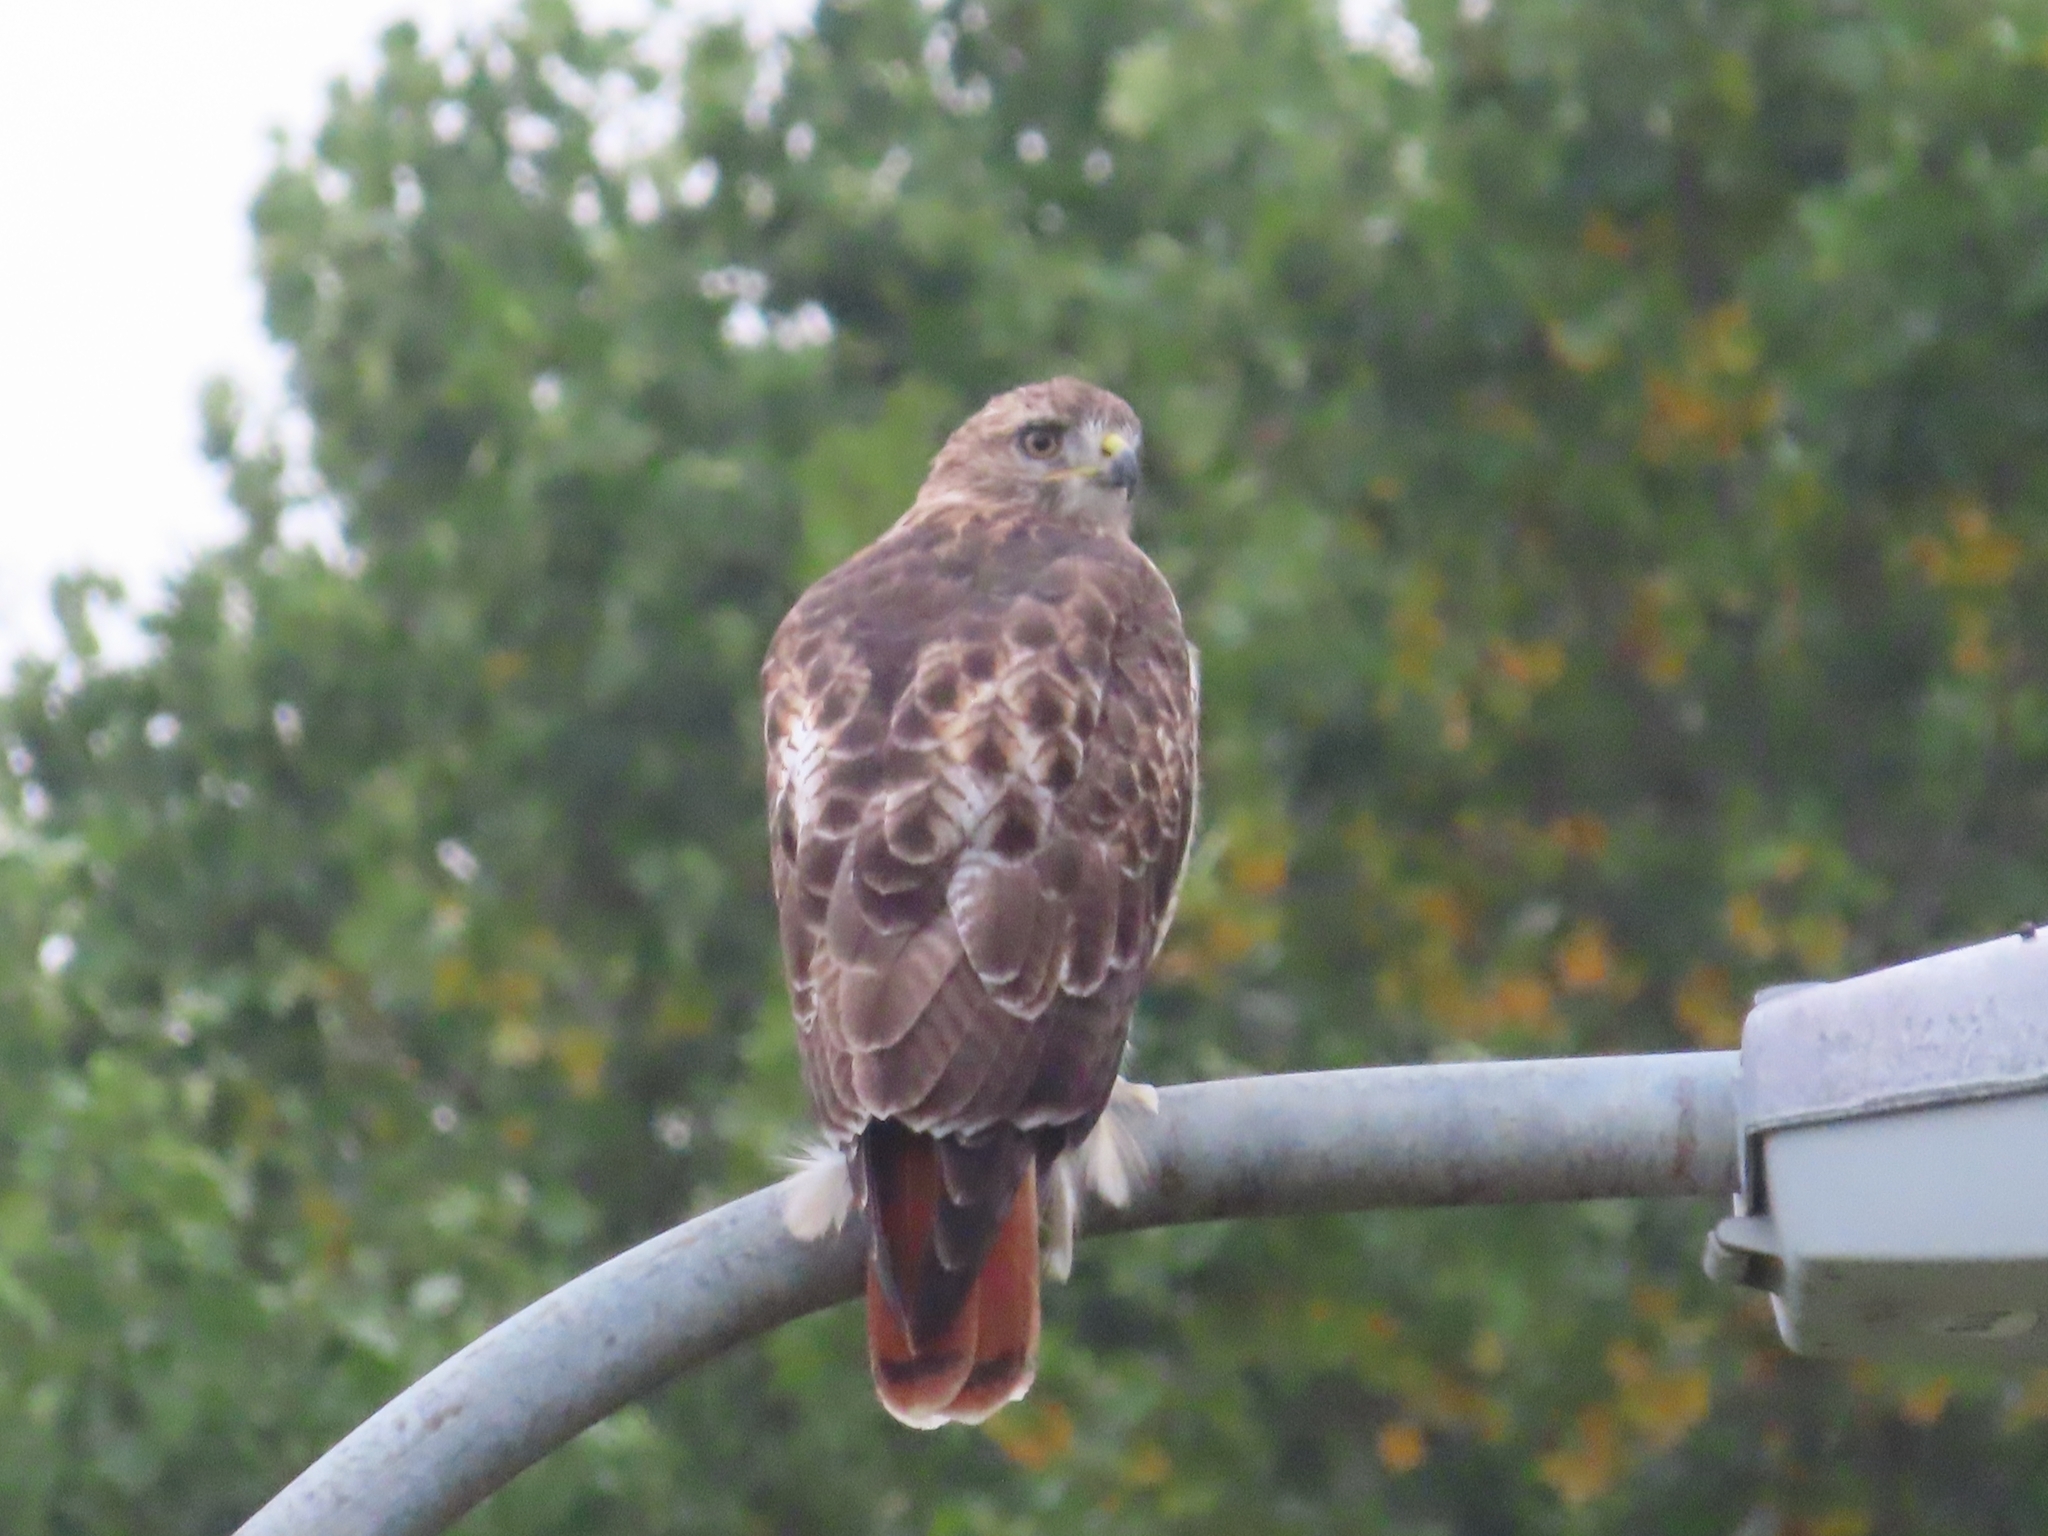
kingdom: Animalia
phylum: Chordata
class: Aves
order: Accipitriformes
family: Accipitridae
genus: Buteo
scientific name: Buteo jamaicensis
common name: Red-tailed hawk
